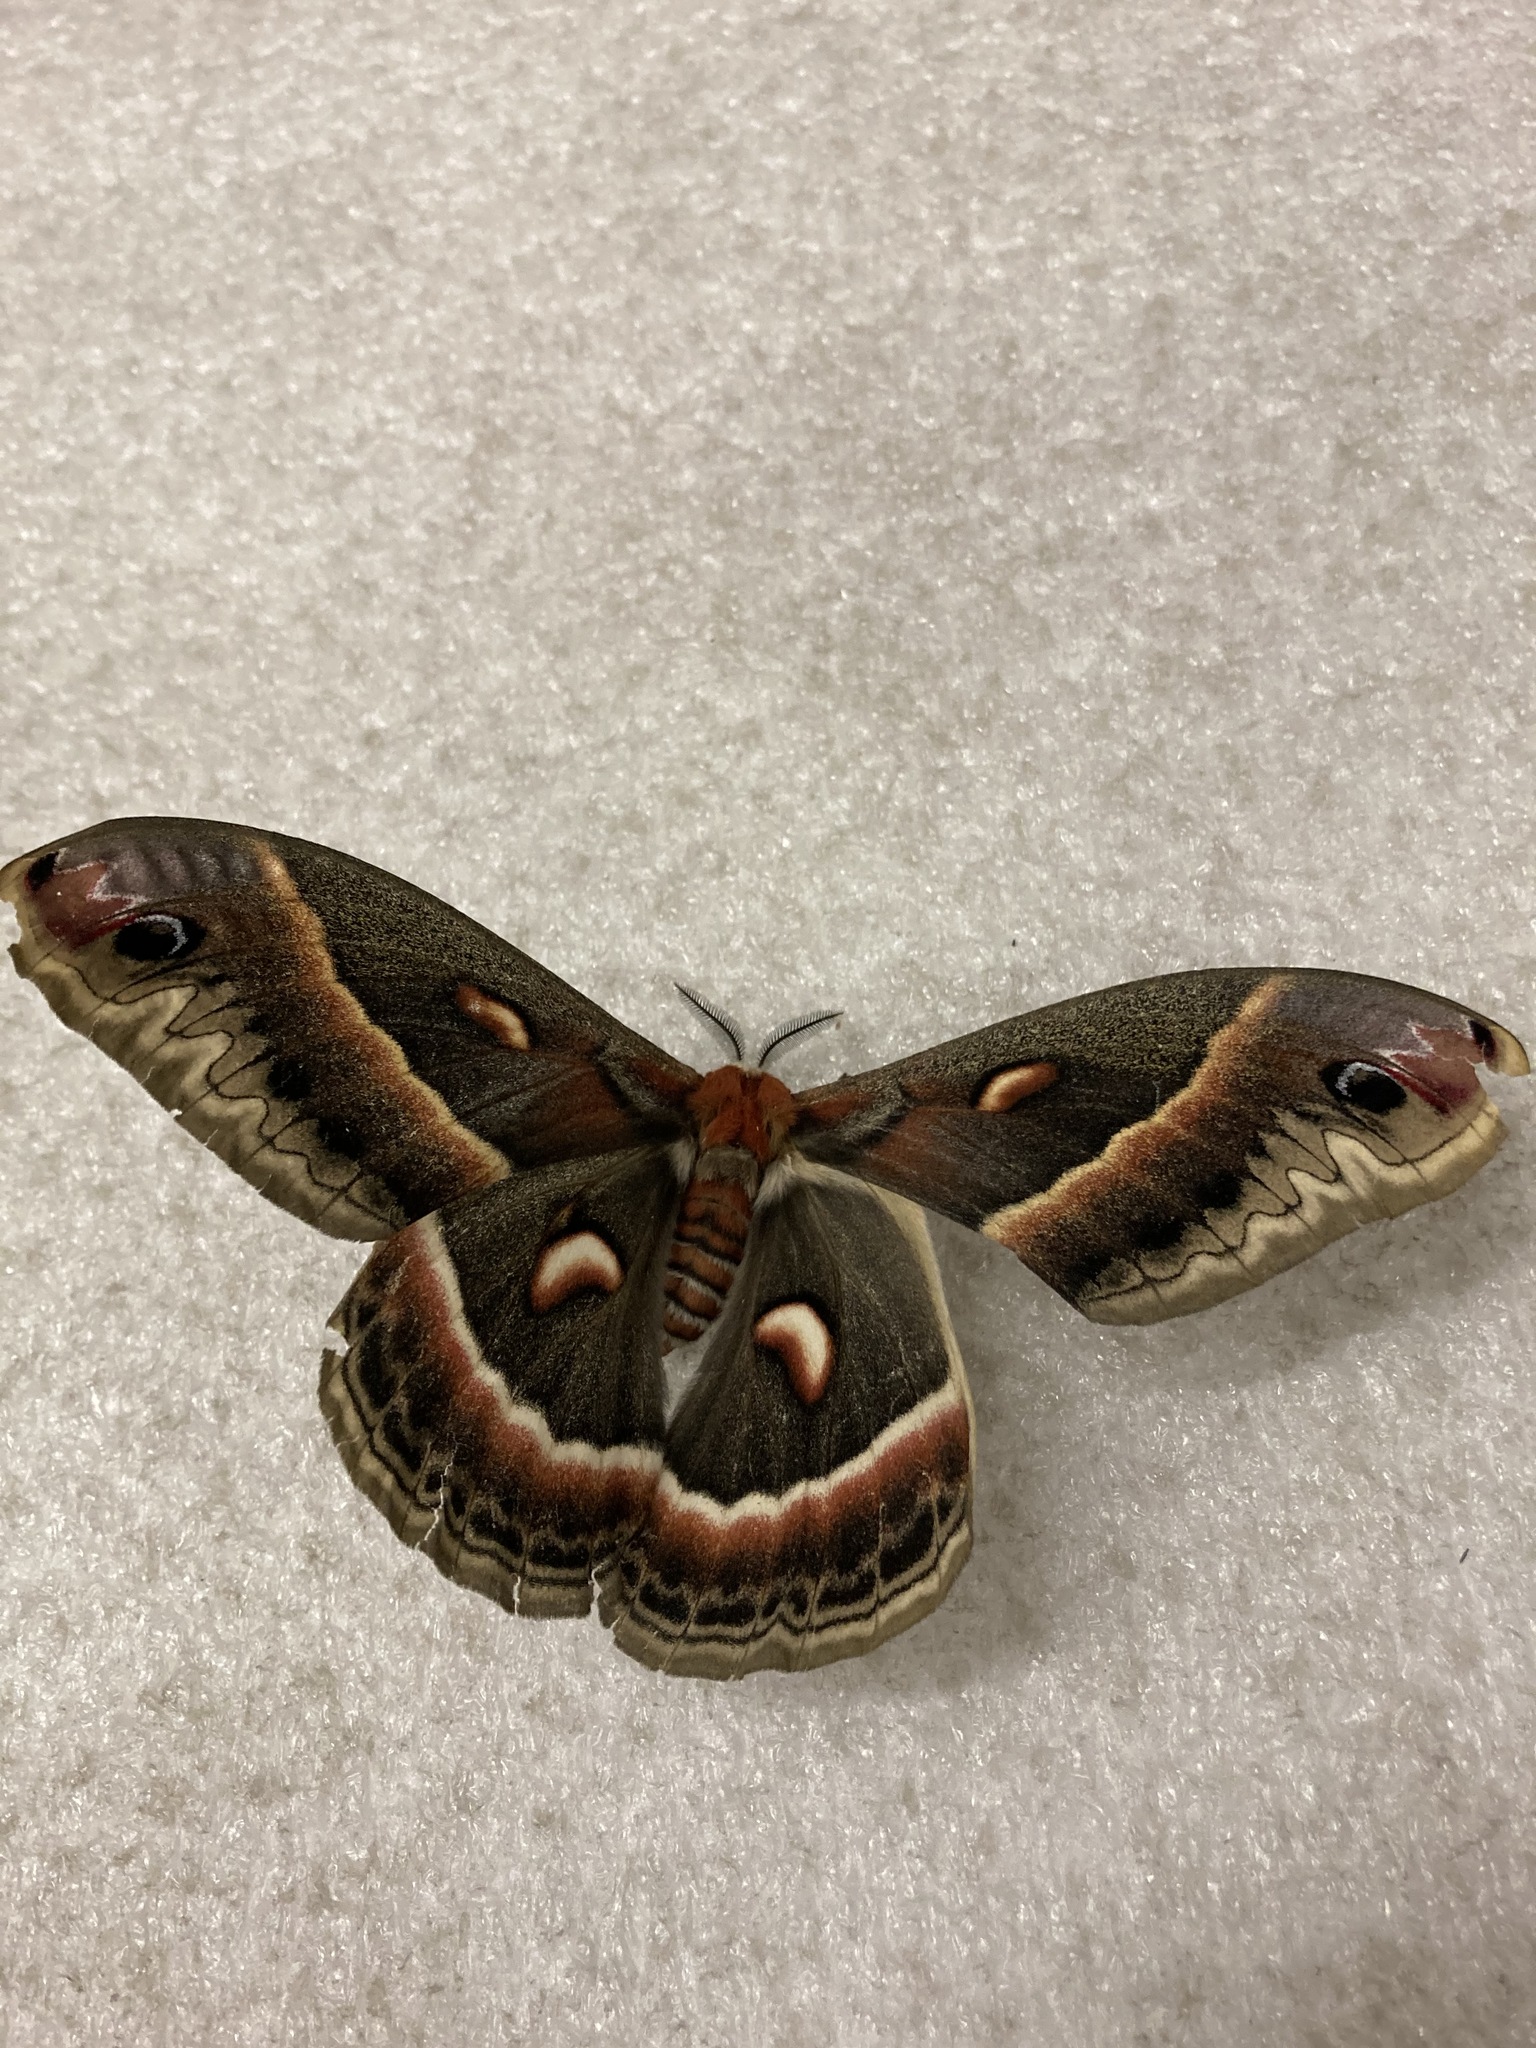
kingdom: Animalia
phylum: Arthropoda
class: Insecta
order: Lepidoptera
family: Saturniidae
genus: Hyalophora
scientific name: Hyalophora cecropia
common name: Cecropia silkmoth
